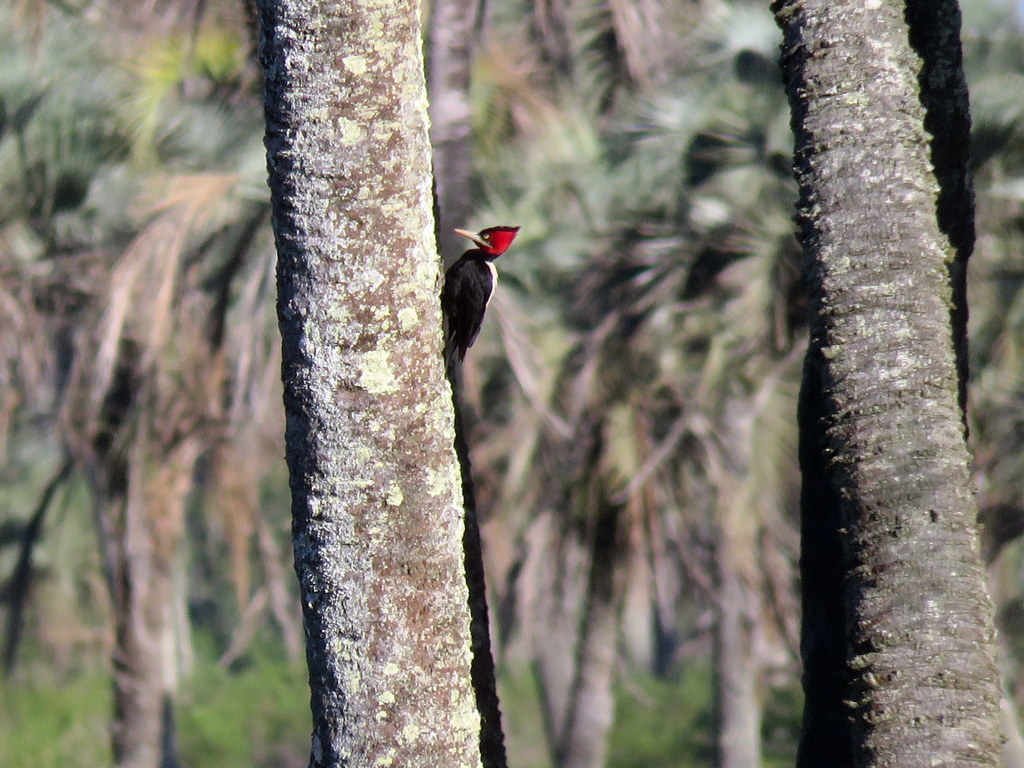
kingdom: Animalia
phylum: Chordata
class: Aves
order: Piciformes
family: Picidae
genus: Campephilus
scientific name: Campephilus leucopogon
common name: Cream-backed woodpecker
